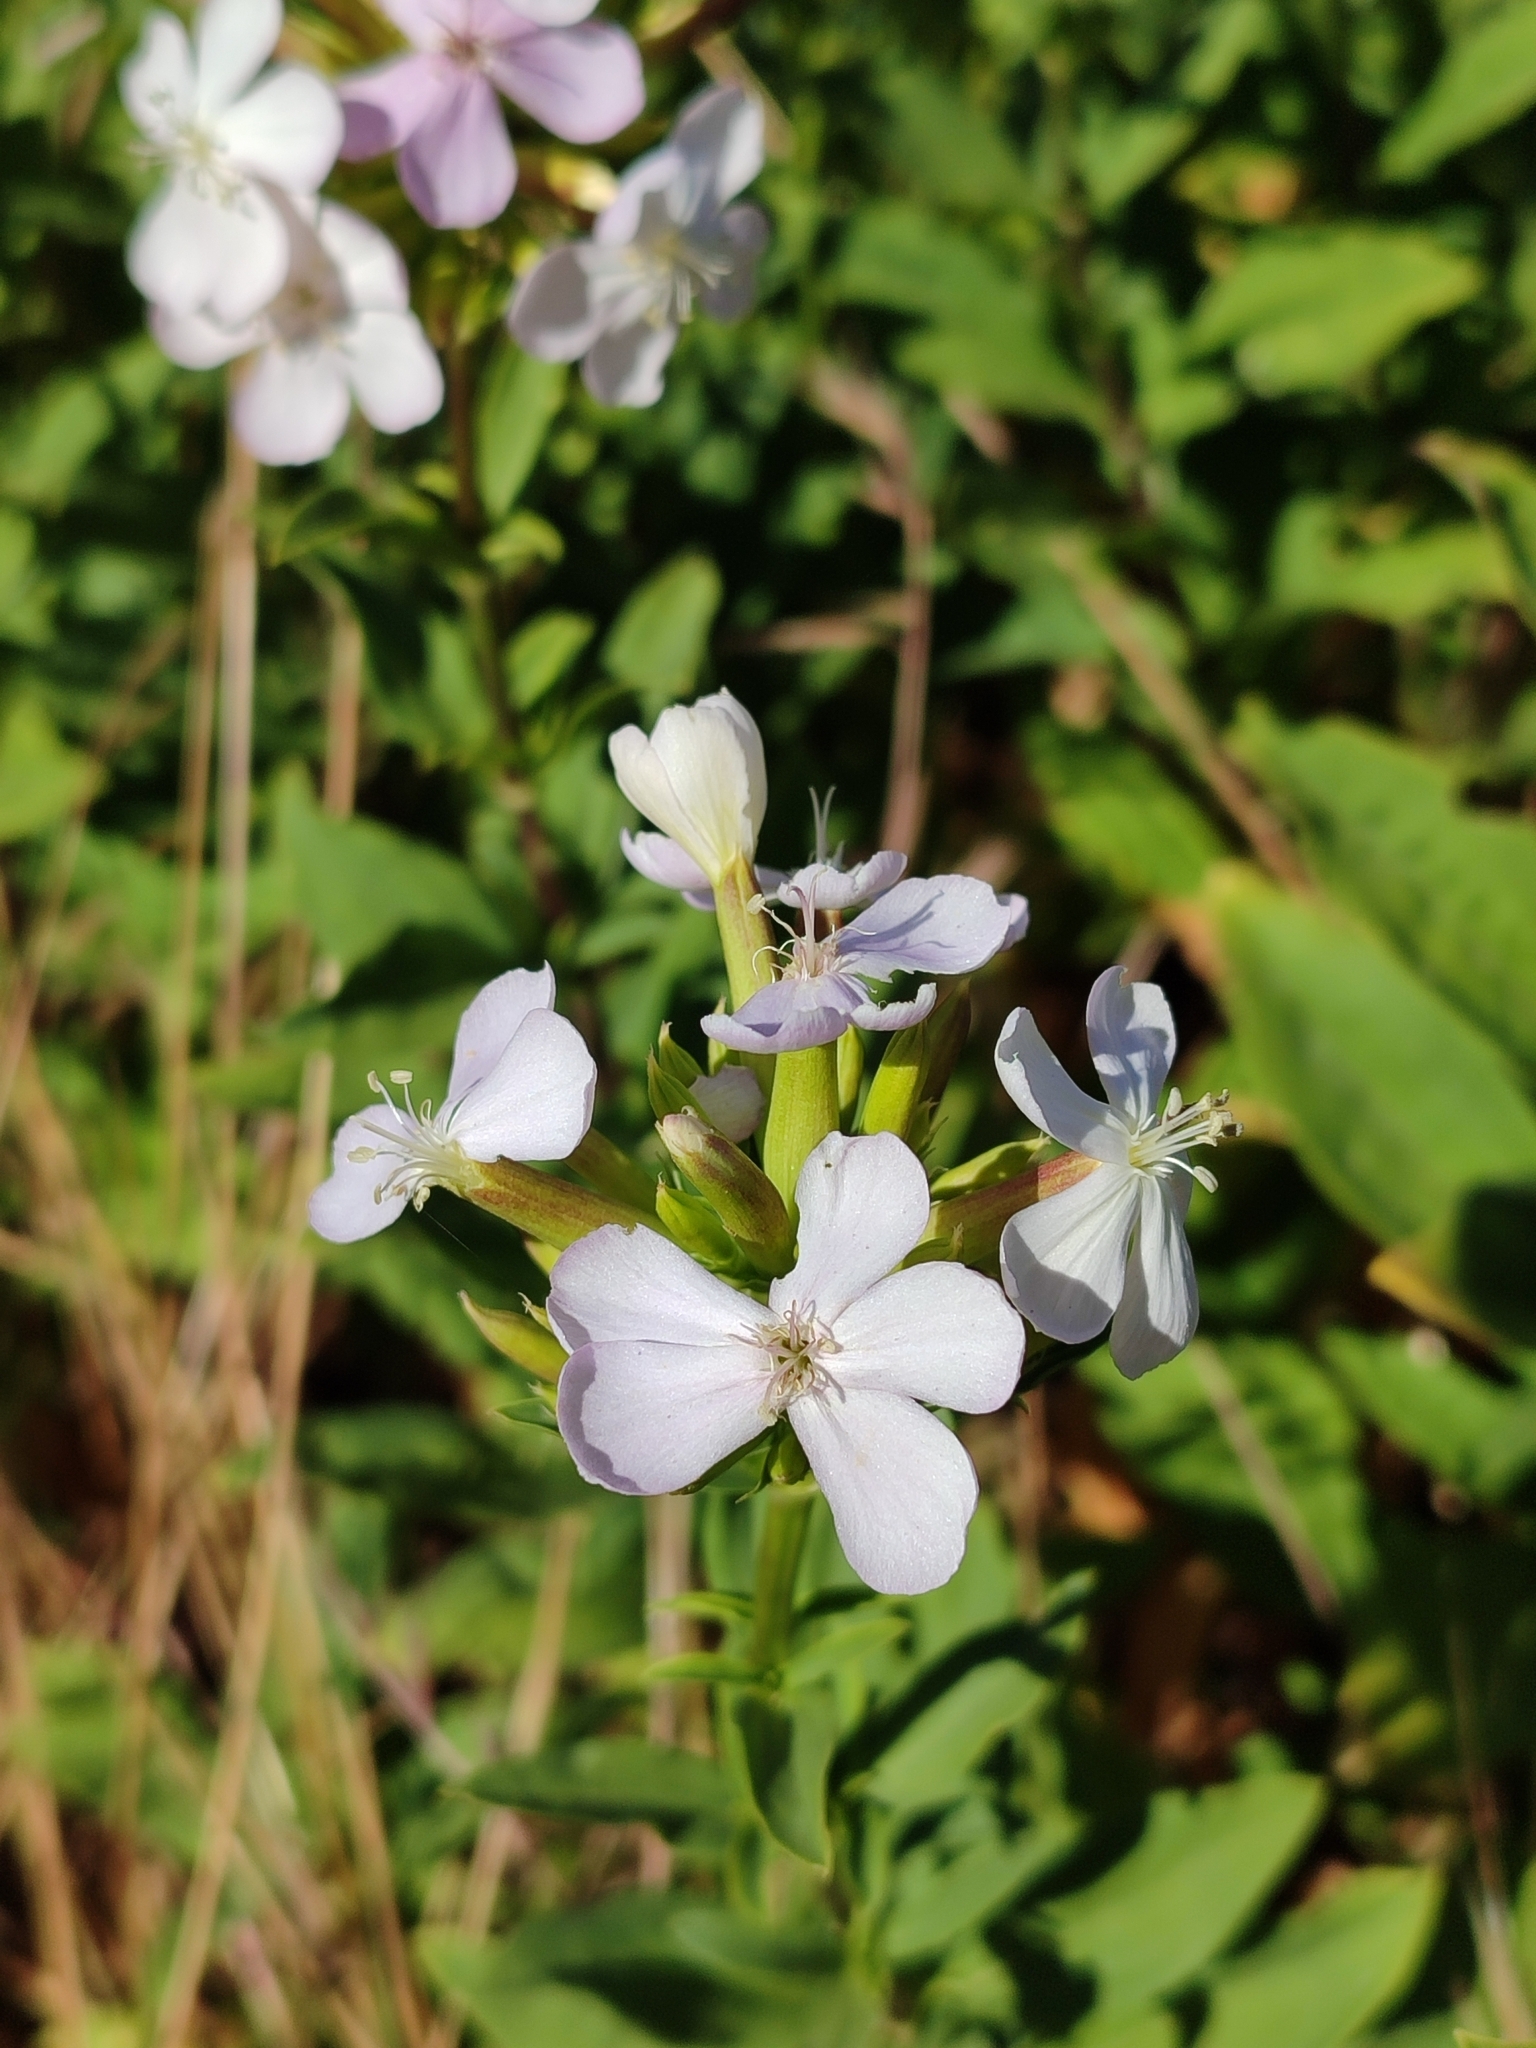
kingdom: Plantae
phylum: Tracheophyta
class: Magnoliopsida
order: Caryophyllales
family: Caryophyllaceae
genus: Saponaria
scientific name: Saponaria officinalis
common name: Soapwort
